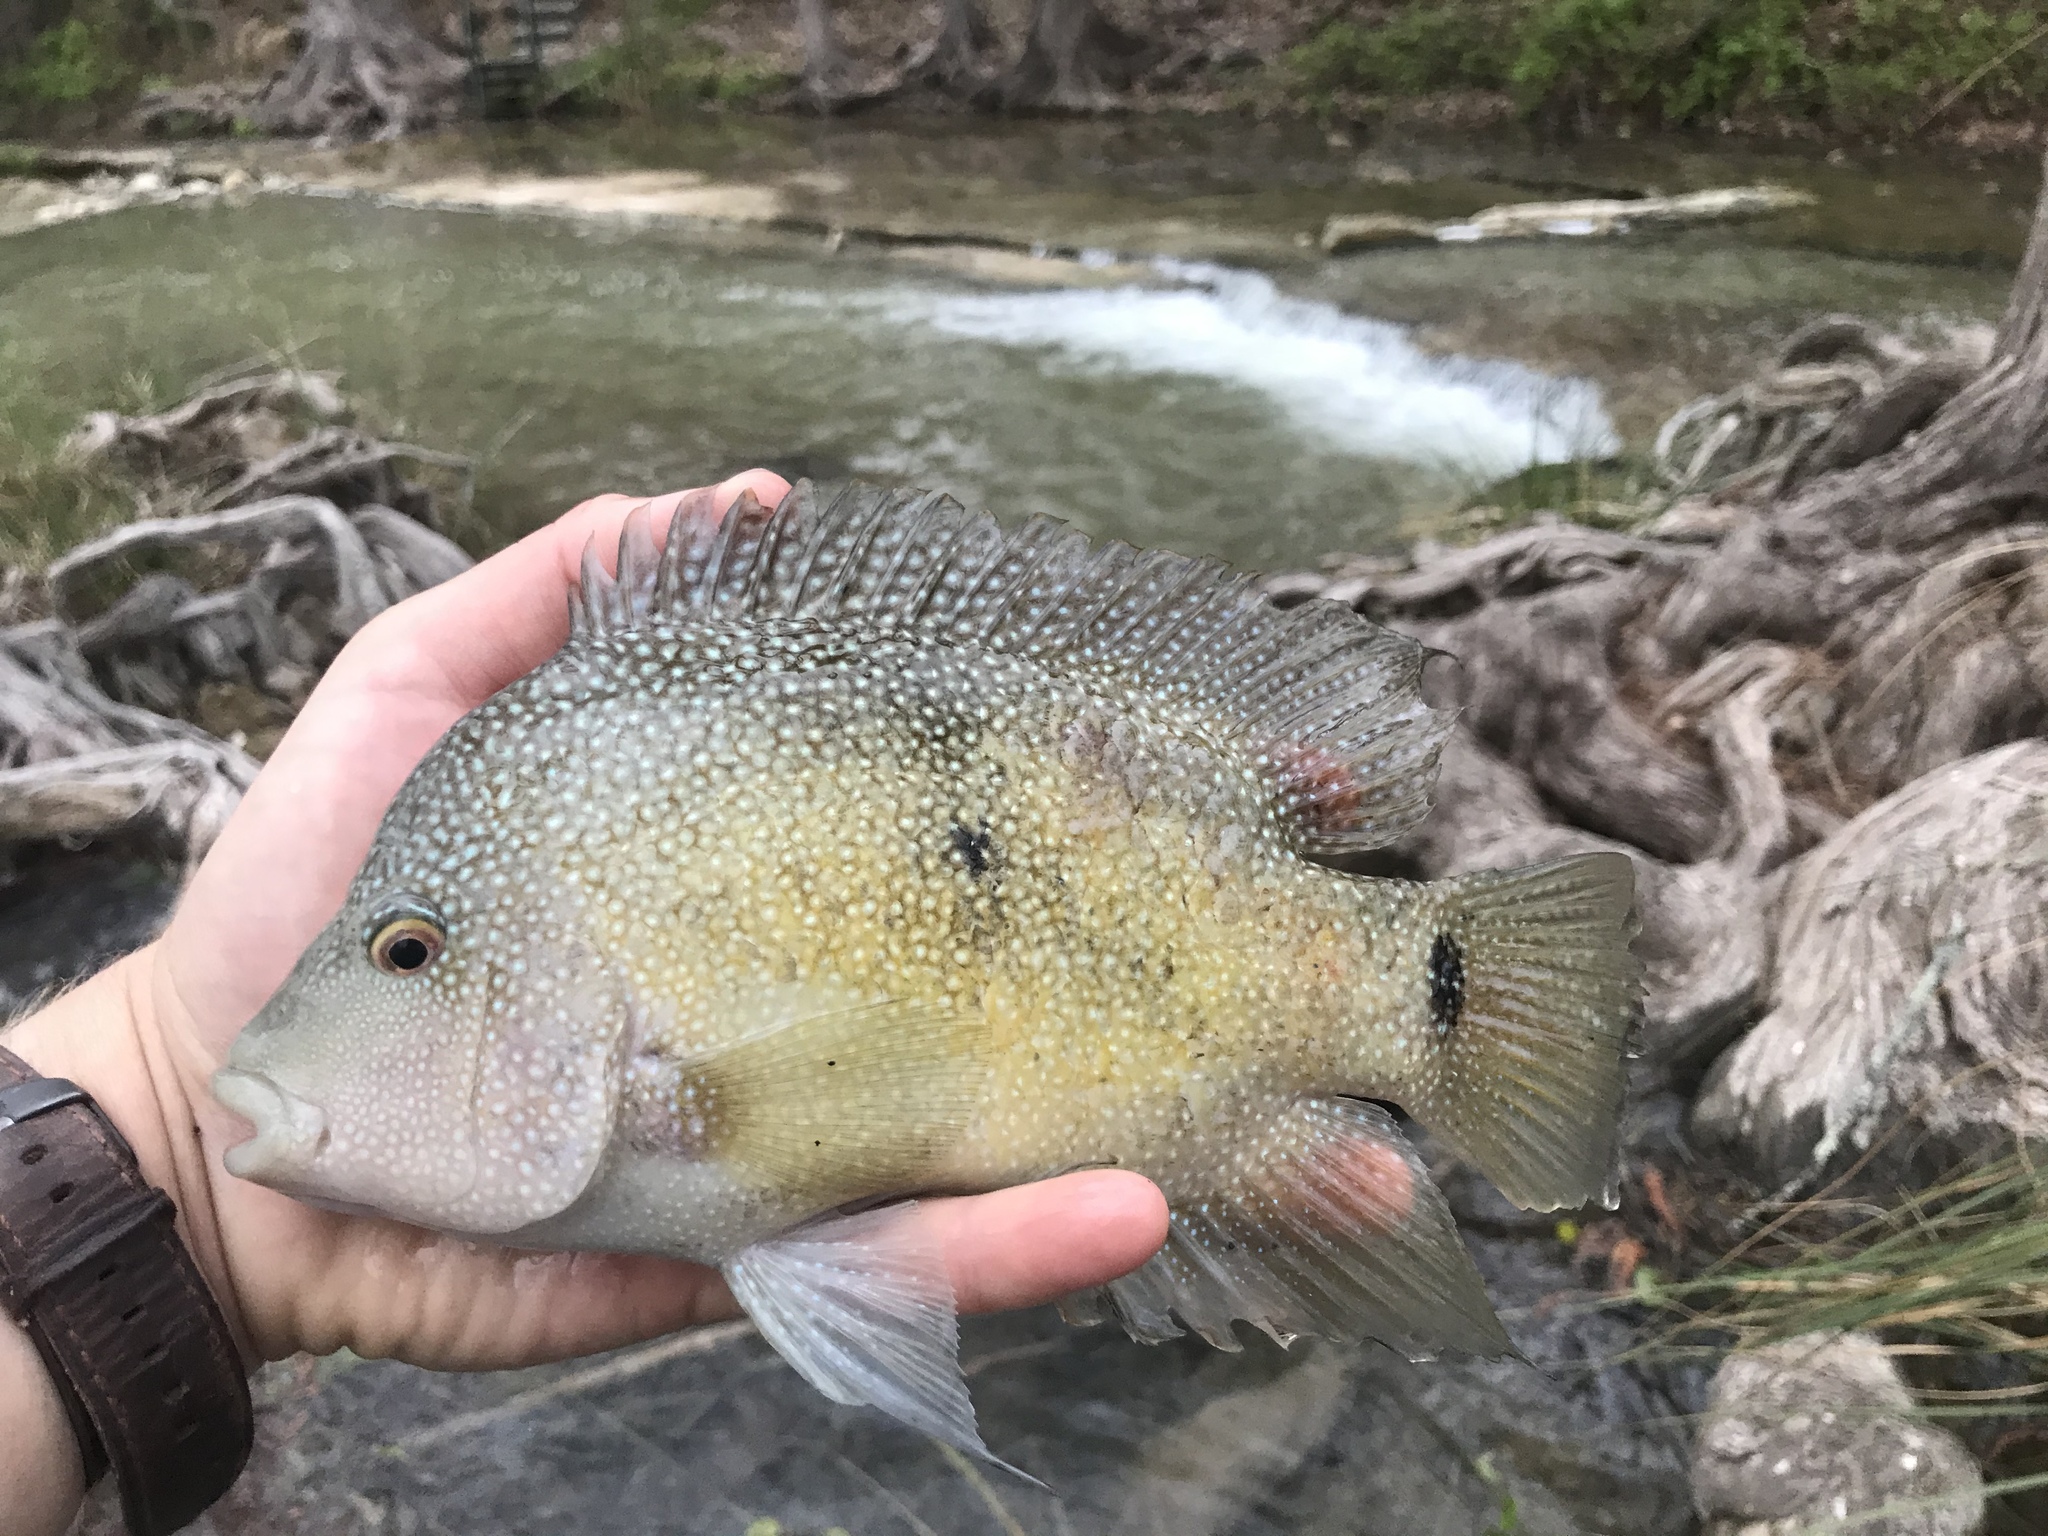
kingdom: Animalia
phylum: Chordata
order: Perciformes
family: Cichlidae
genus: Herichthys
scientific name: Herichthys cyanoguttatus
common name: Rio grande cichlid
